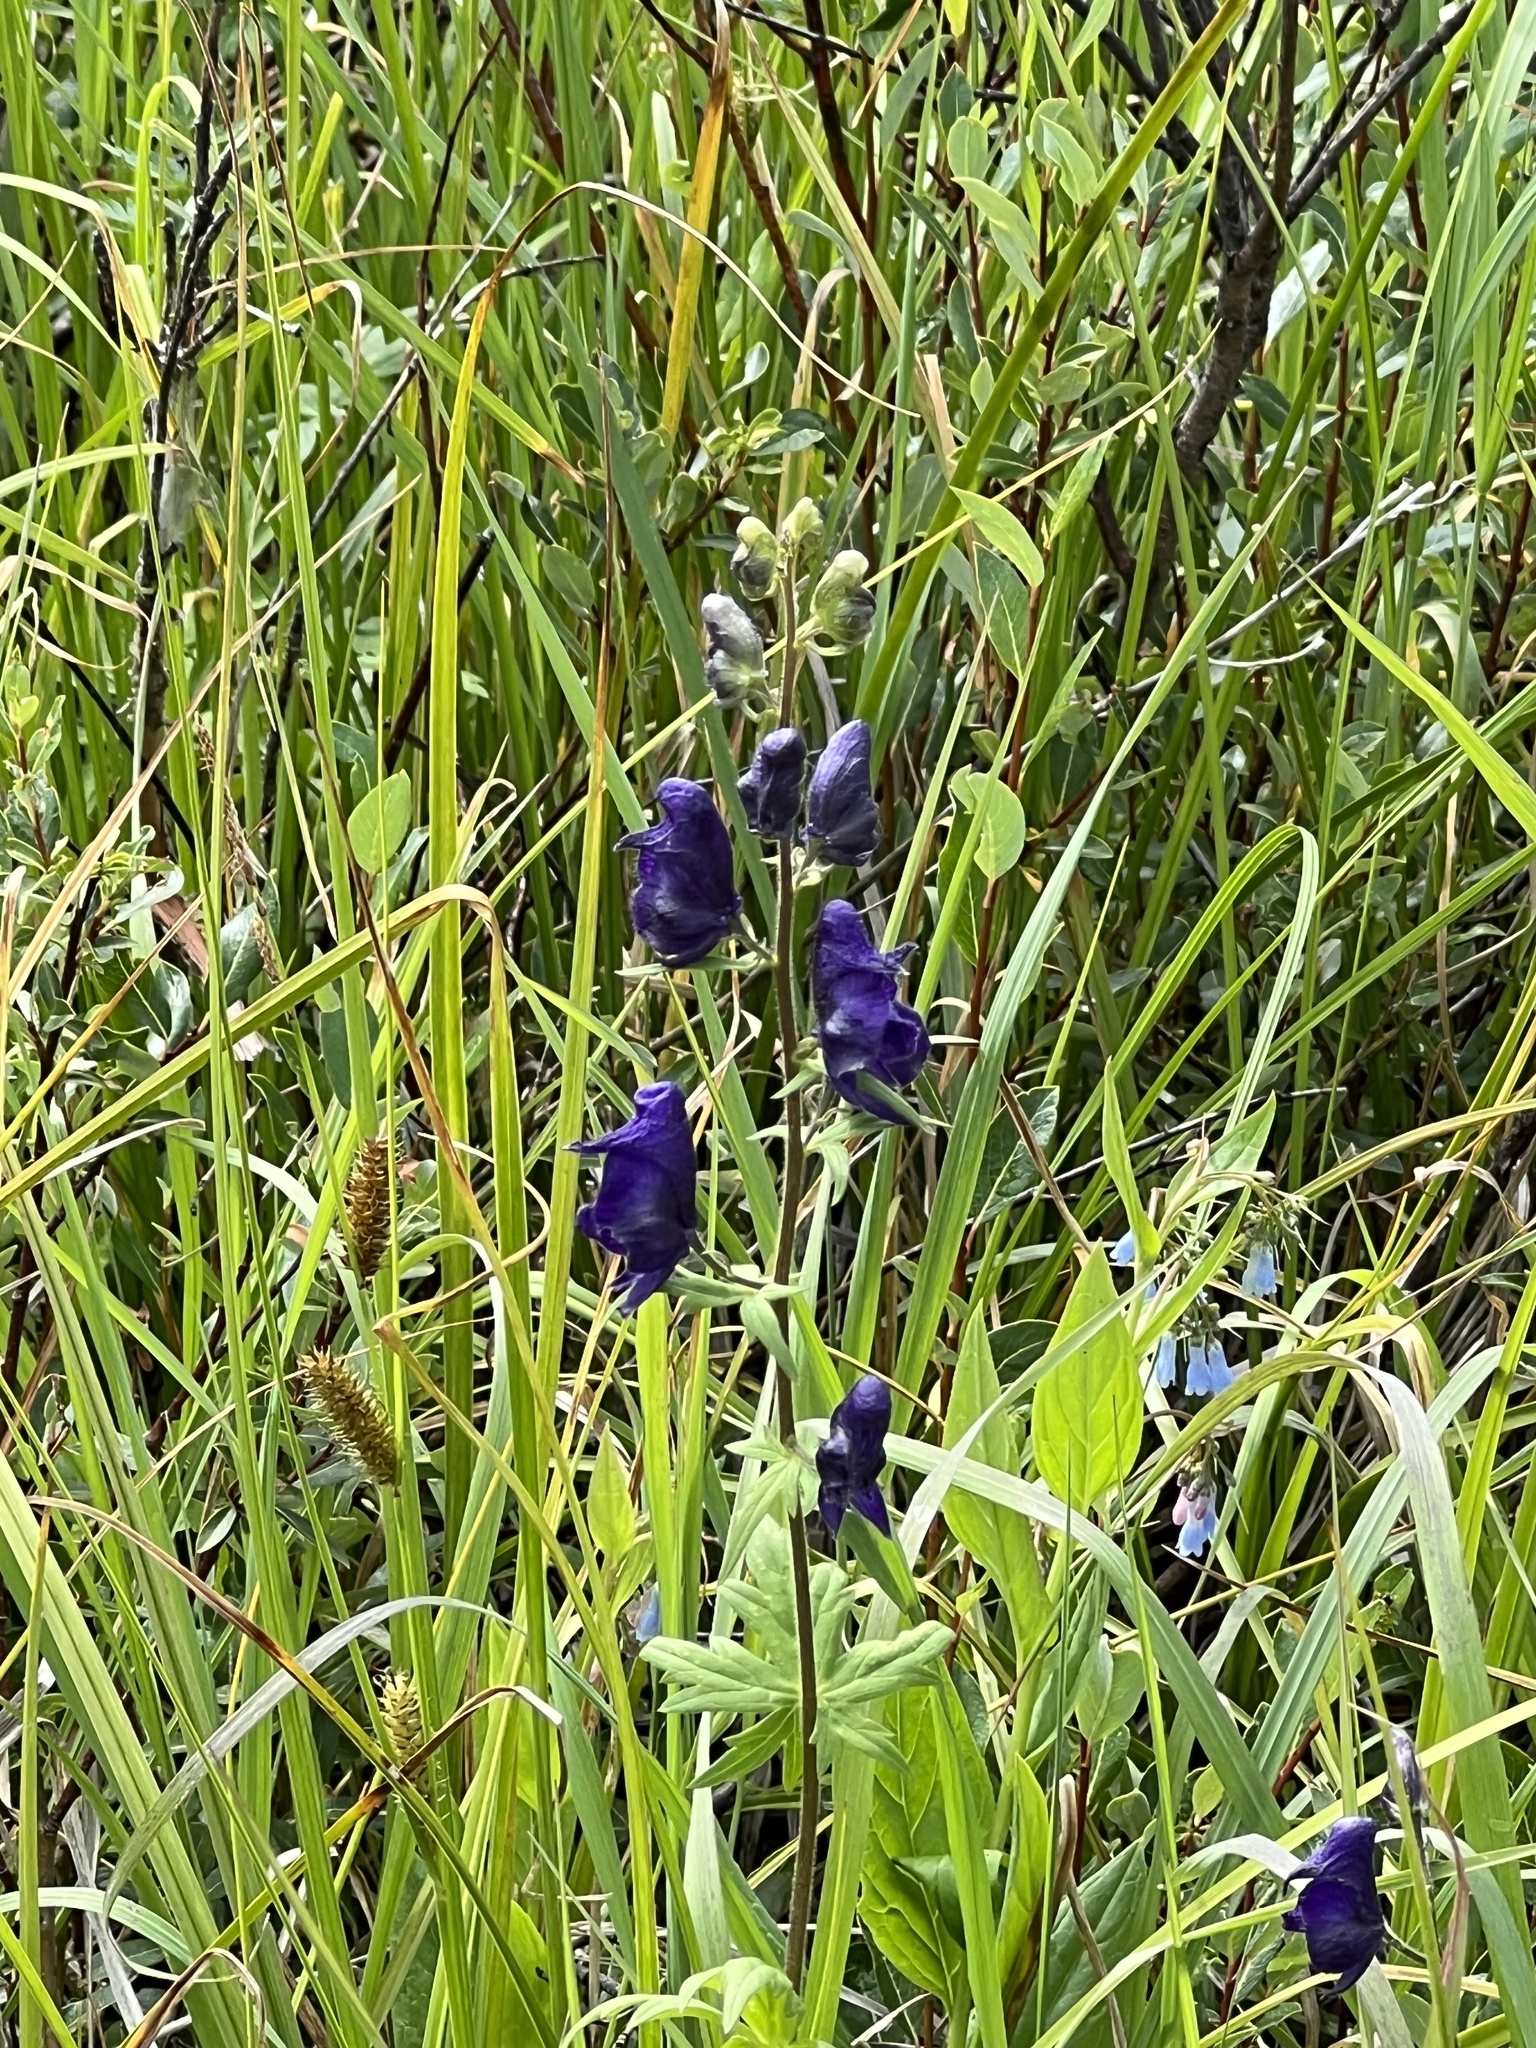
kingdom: Plantae
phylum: Tracheophyta
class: Magnoliopsida
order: Ranunculales
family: Ranunculaceae
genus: Aconitum
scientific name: Aconitum columbianum
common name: Columbia aconite
